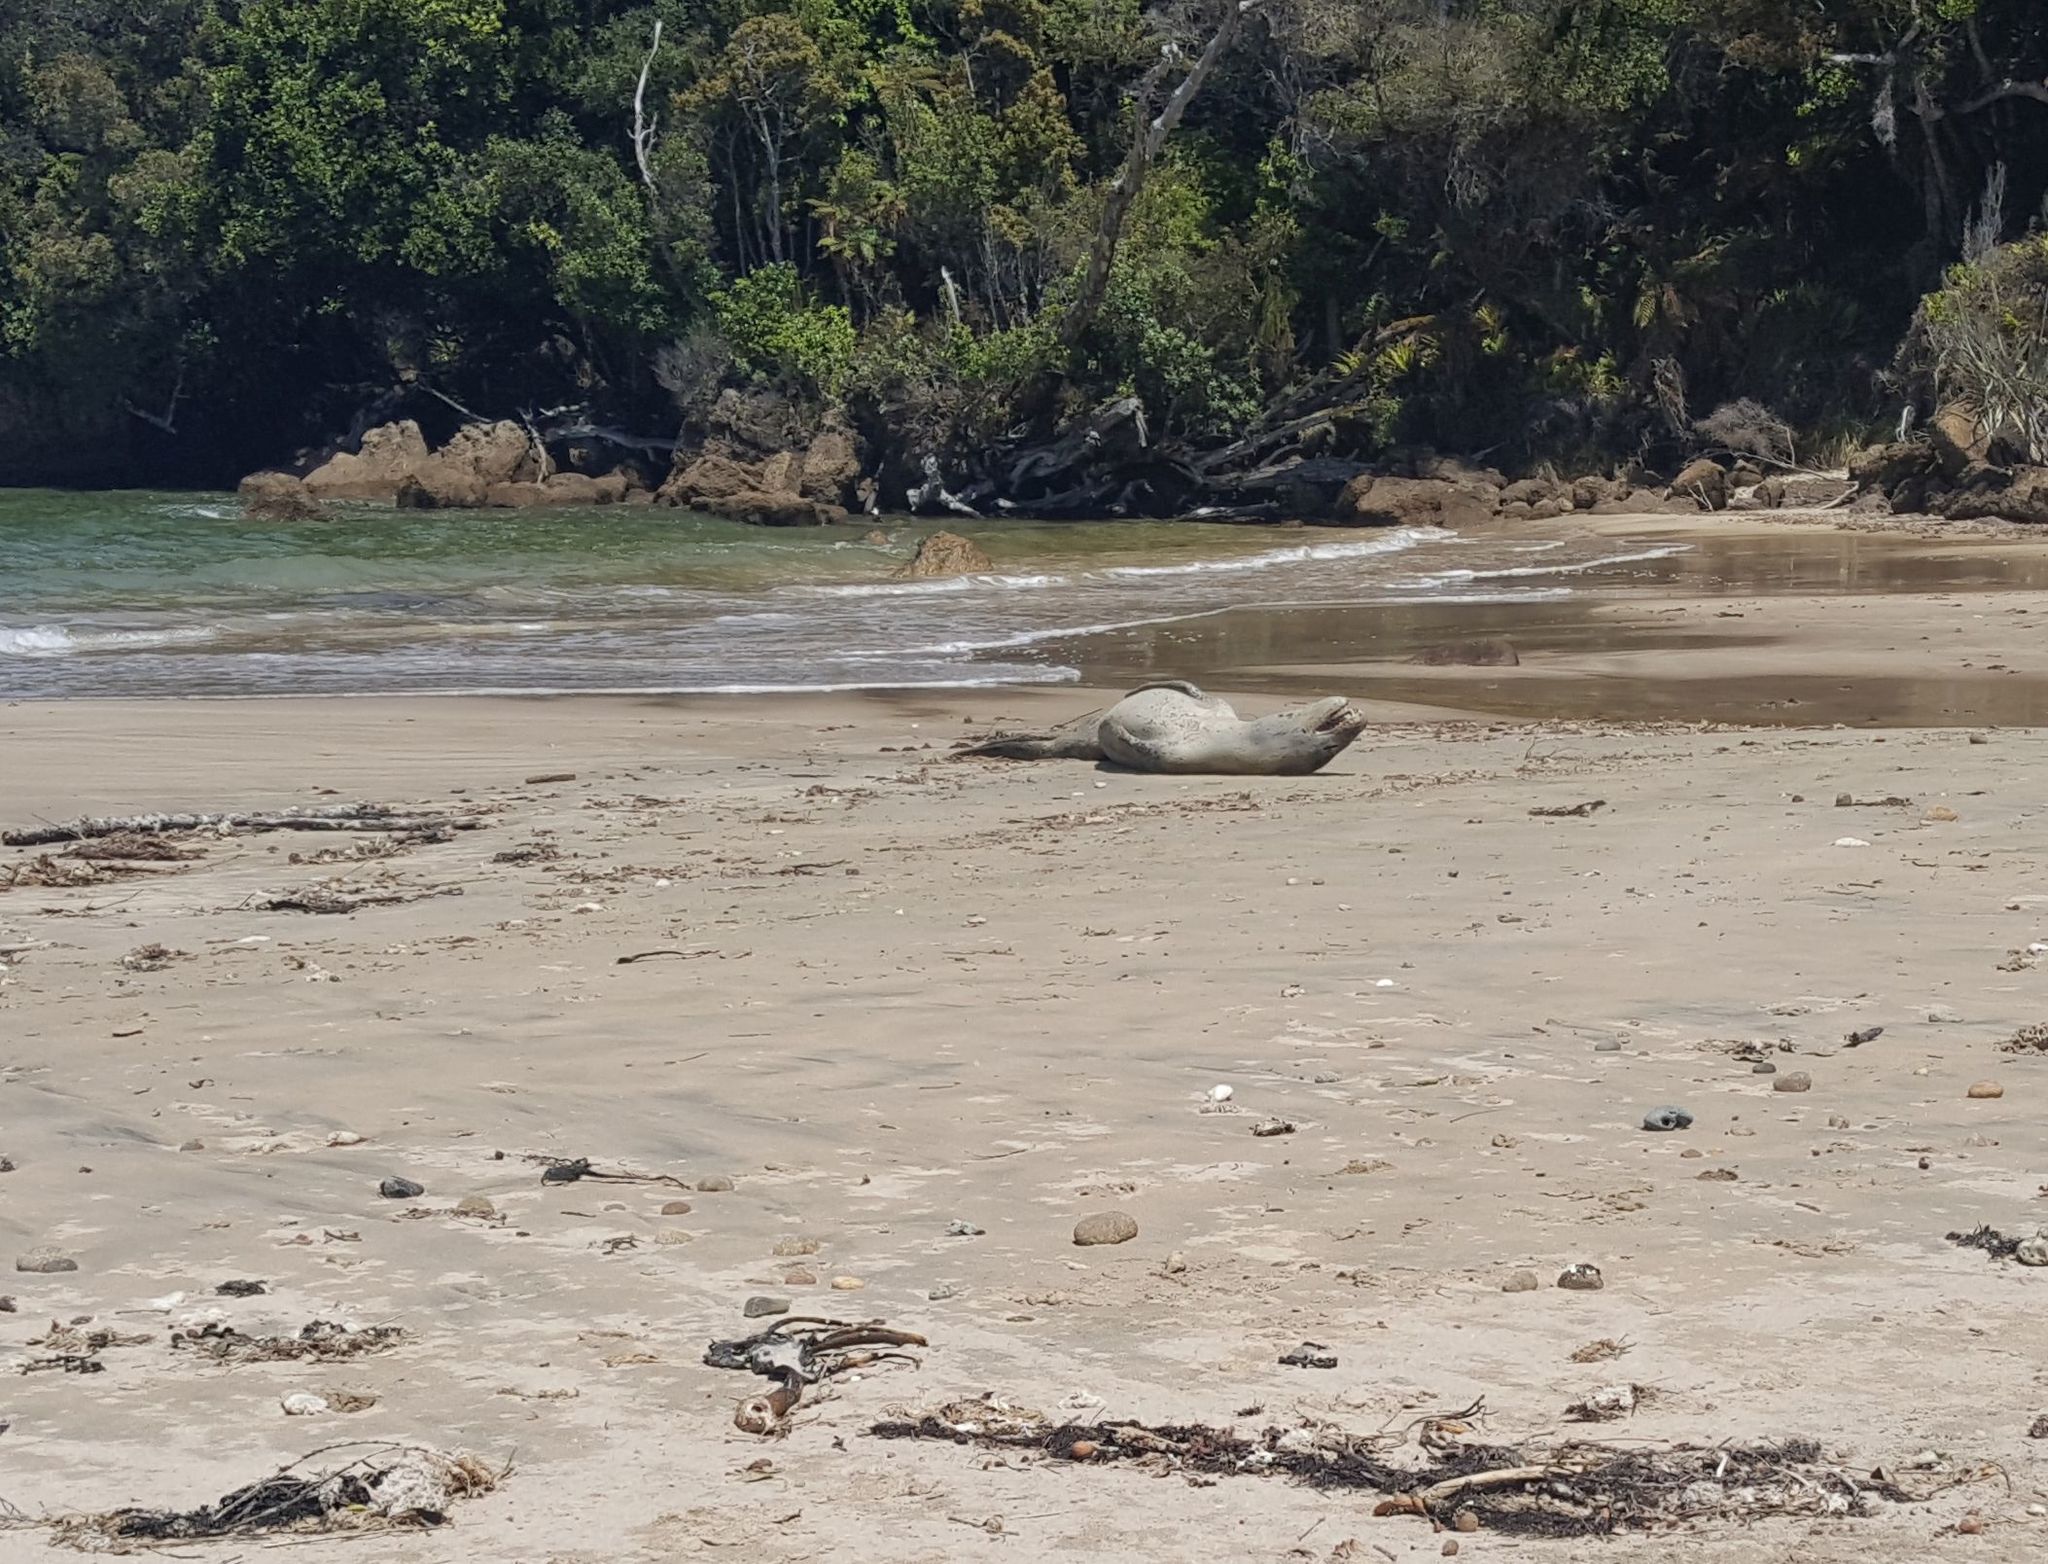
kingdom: Animalia
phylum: Chordata
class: Mammalia
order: Carnivora
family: Phocidae
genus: Hydrurga
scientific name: Hydrurga leptonyx
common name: Leopard seal
